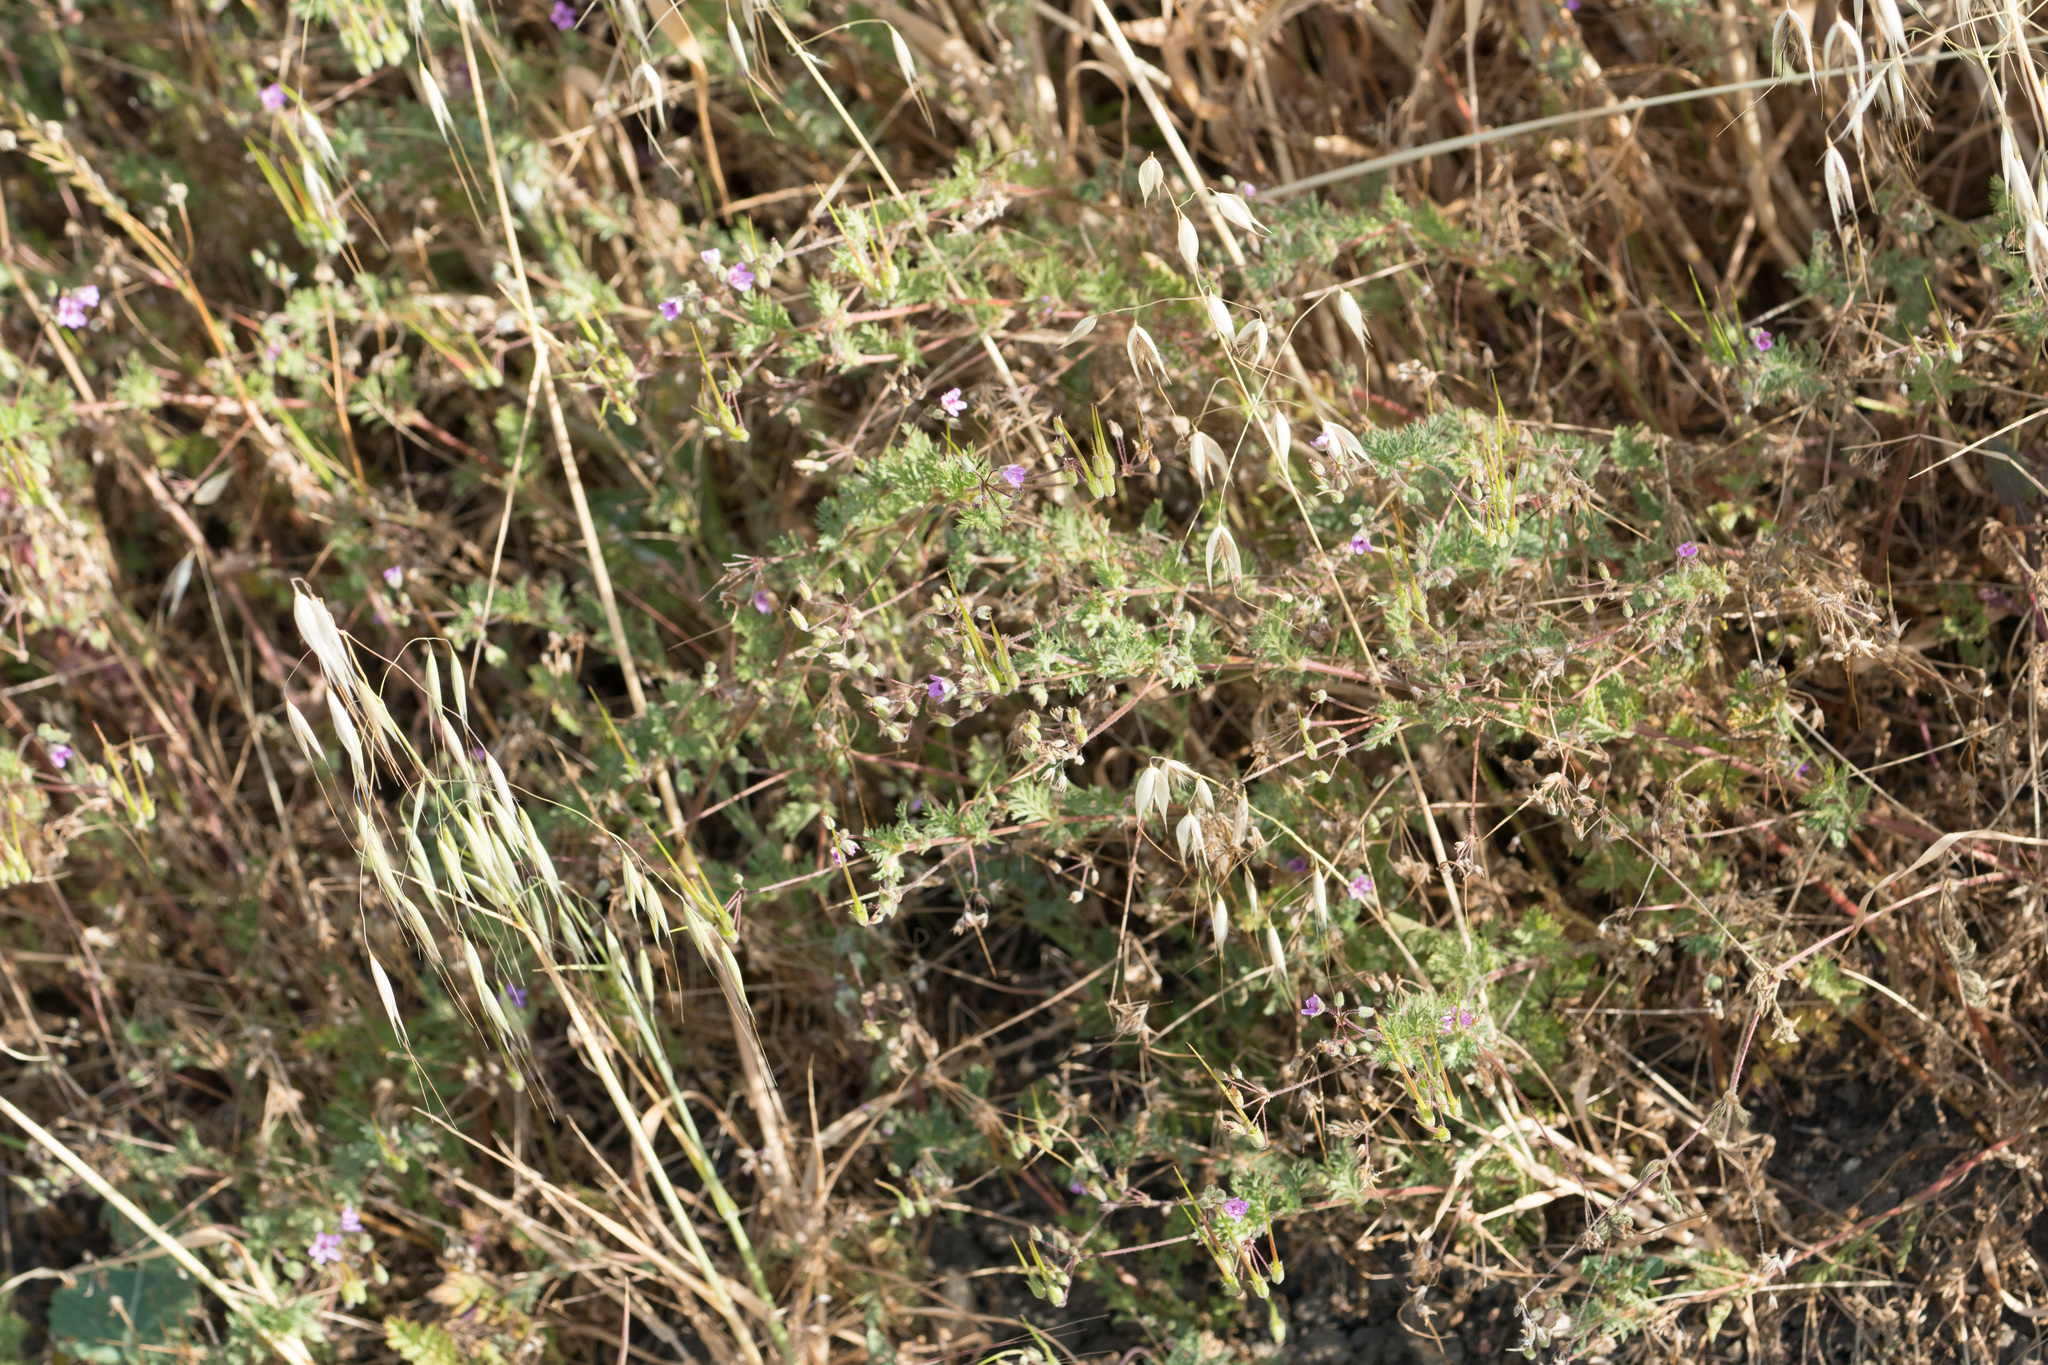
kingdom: Plantae
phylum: Tracheophyta
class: Magnoliopsida
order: Geraniales
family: Geraniaceae
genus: Erodium
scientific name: Erodium cicutarium
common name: Common stork's-bill
